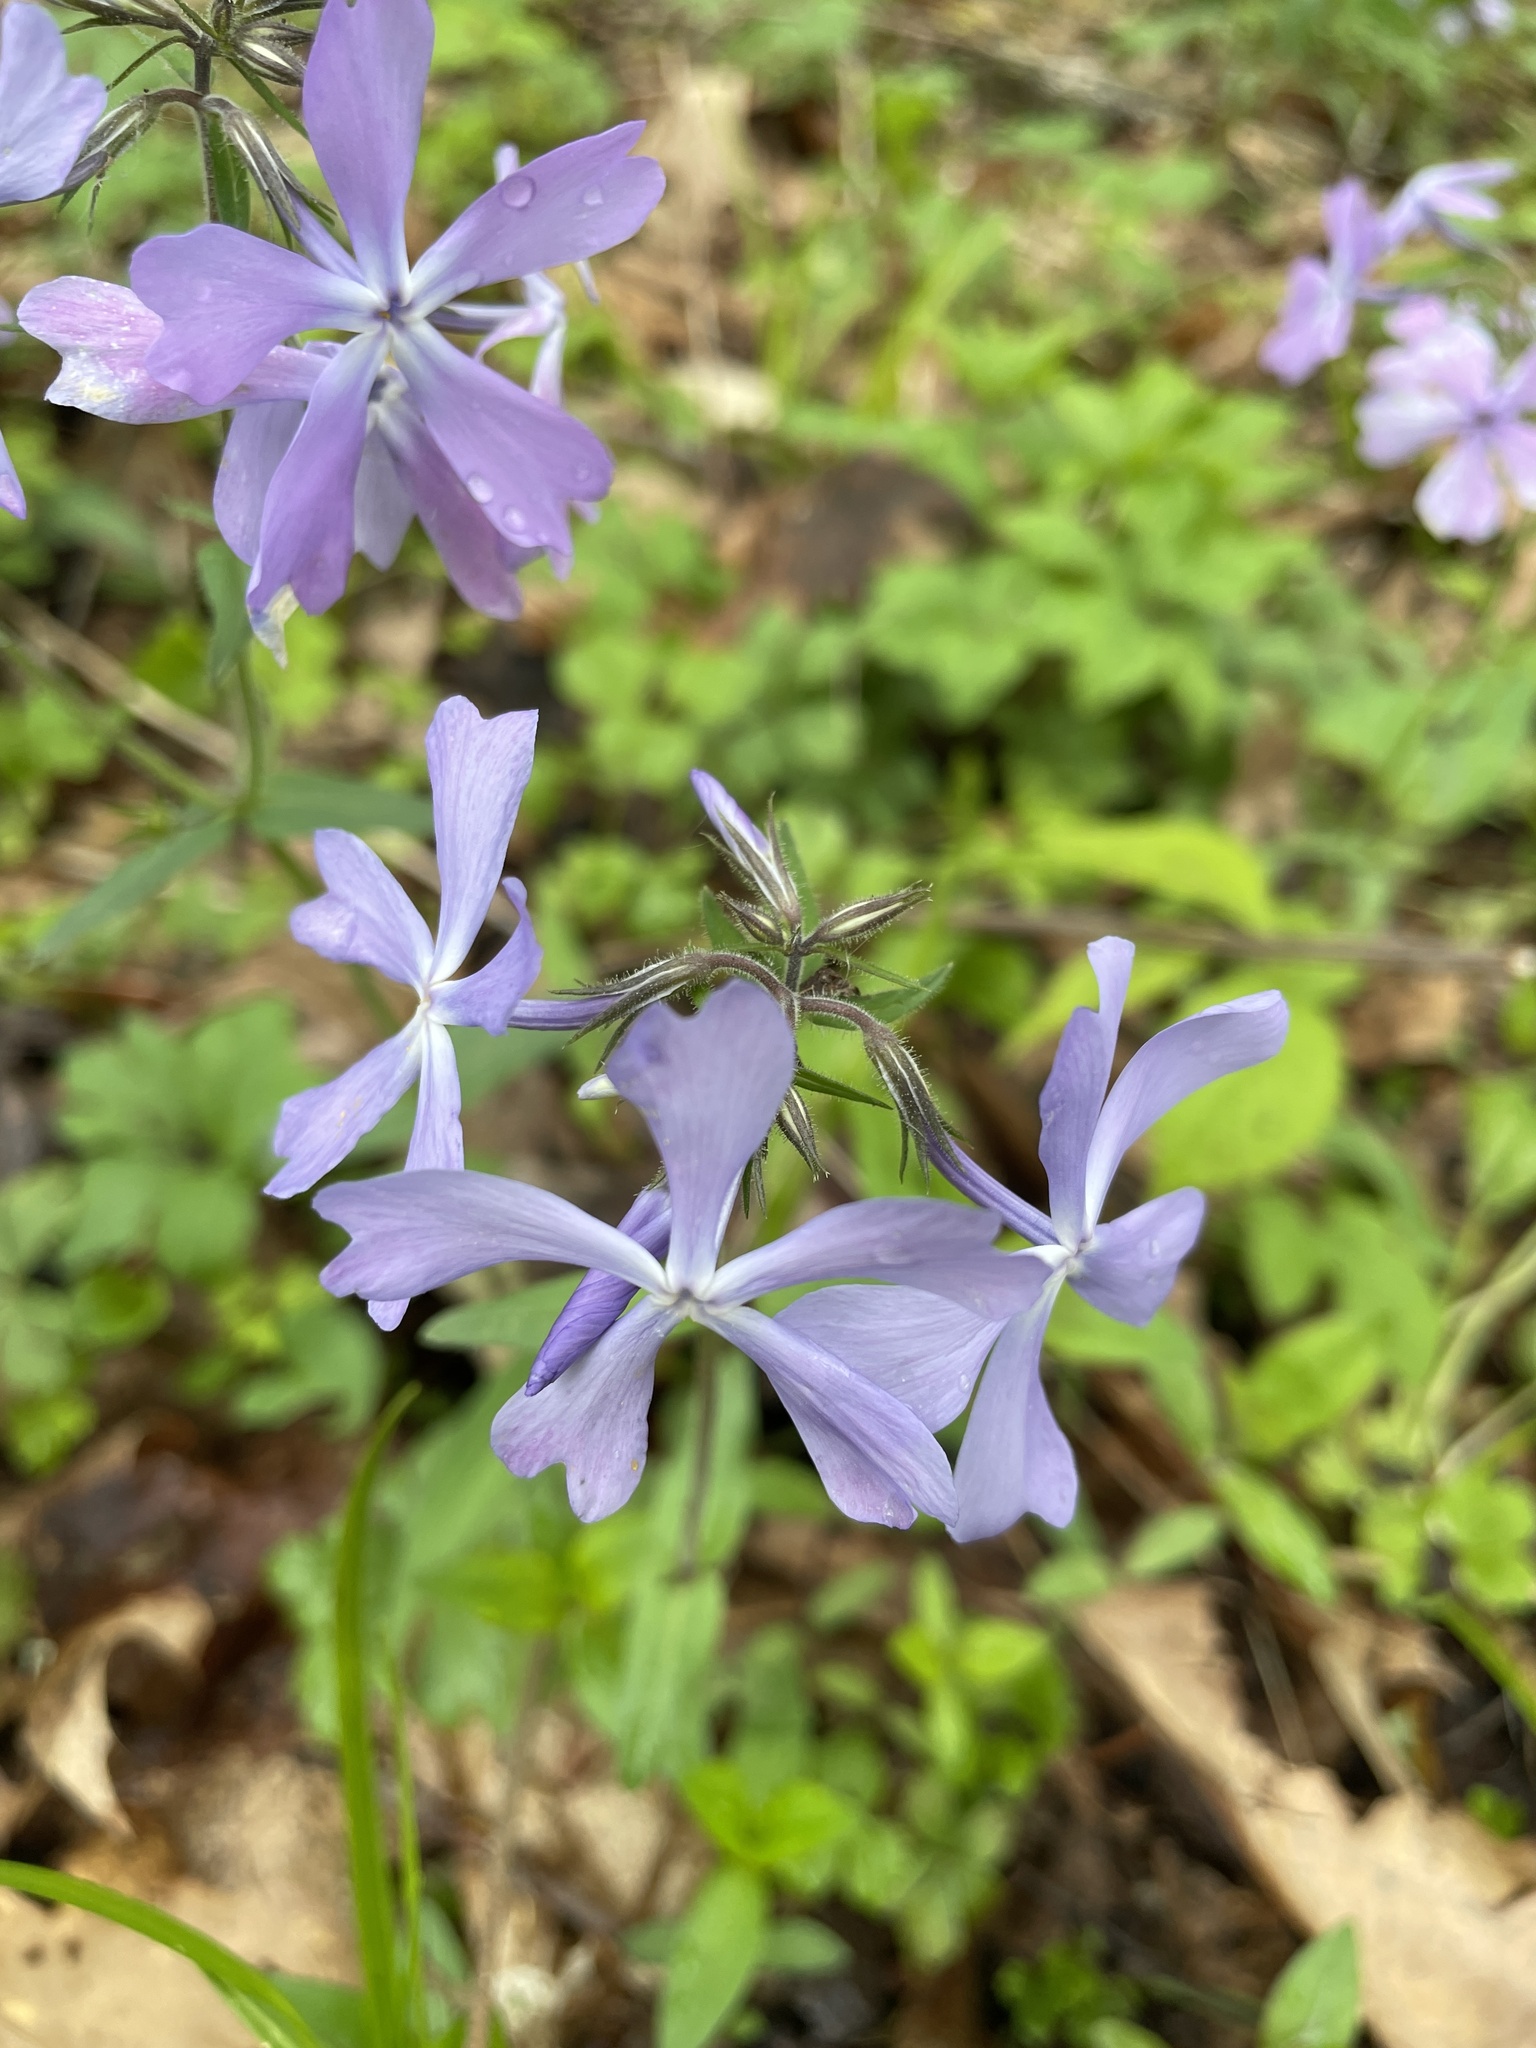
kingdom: Plantae
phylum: Tracheophyta
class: Magnoliopsida
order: Ericales
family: Polemoniaceae
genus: Phlox
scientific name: Phlox divaricata
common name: Blue phlox
